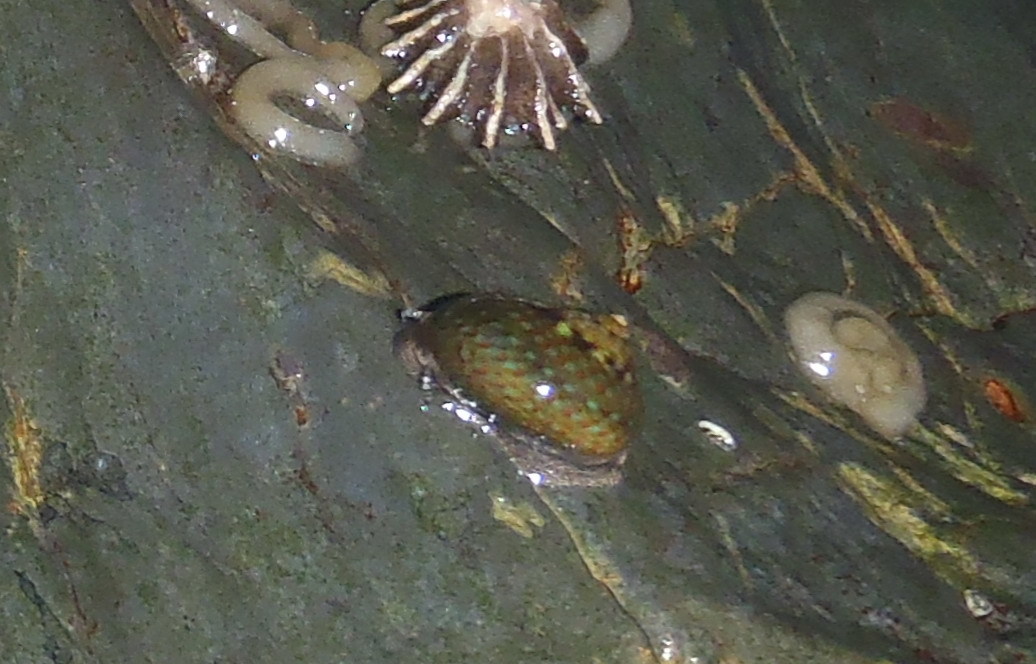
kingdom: Animalia
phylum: Mollusca
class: Gastropoda
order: Trochida
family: Trochidae
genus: Oxystele
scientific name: Oxystele impervia
